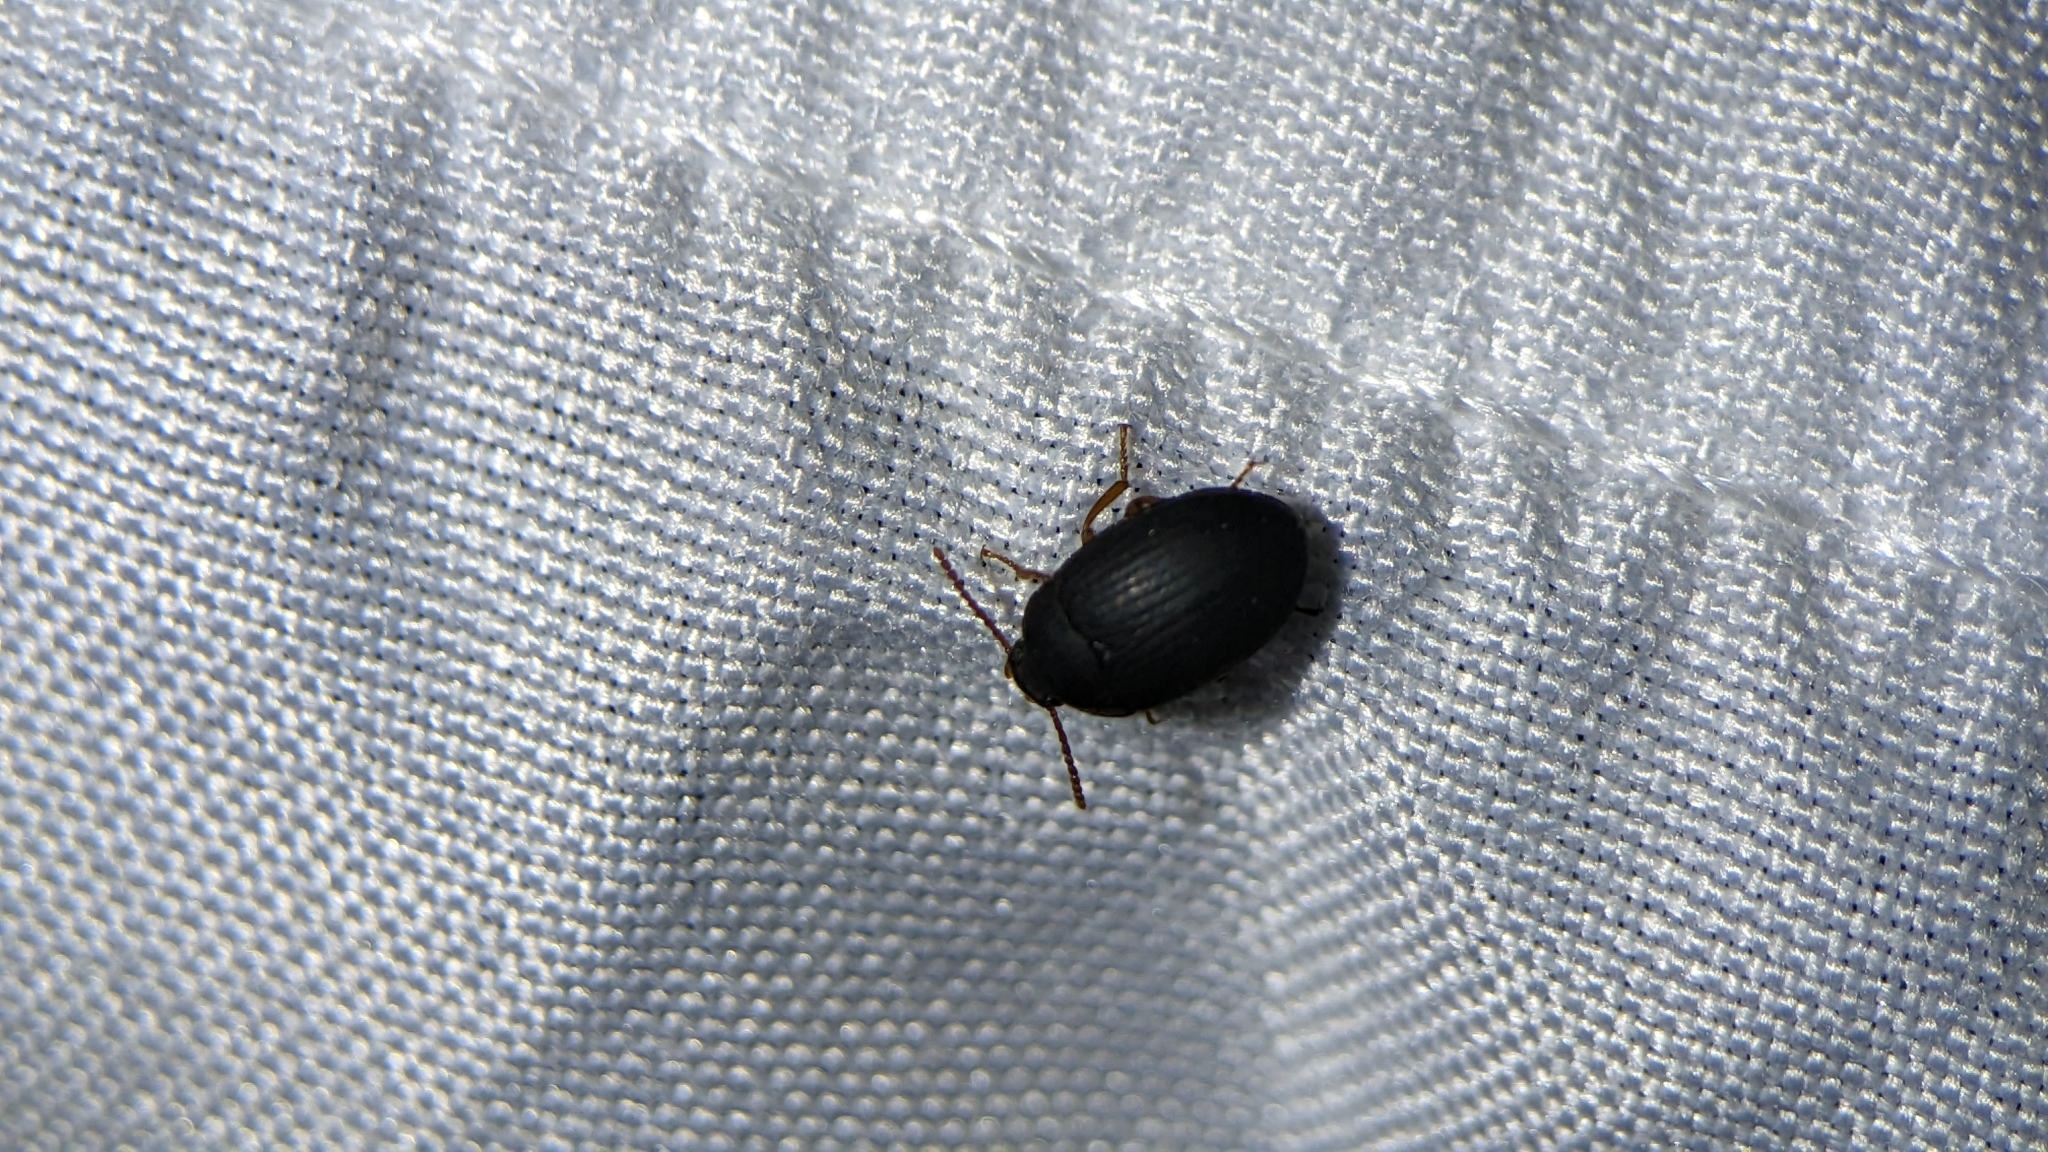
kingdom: Animalia
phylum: Arthropoda
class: Insecta
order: Coleoptera
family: Tenebrionidae
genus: Platydema
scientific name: Platydema ruficornis
